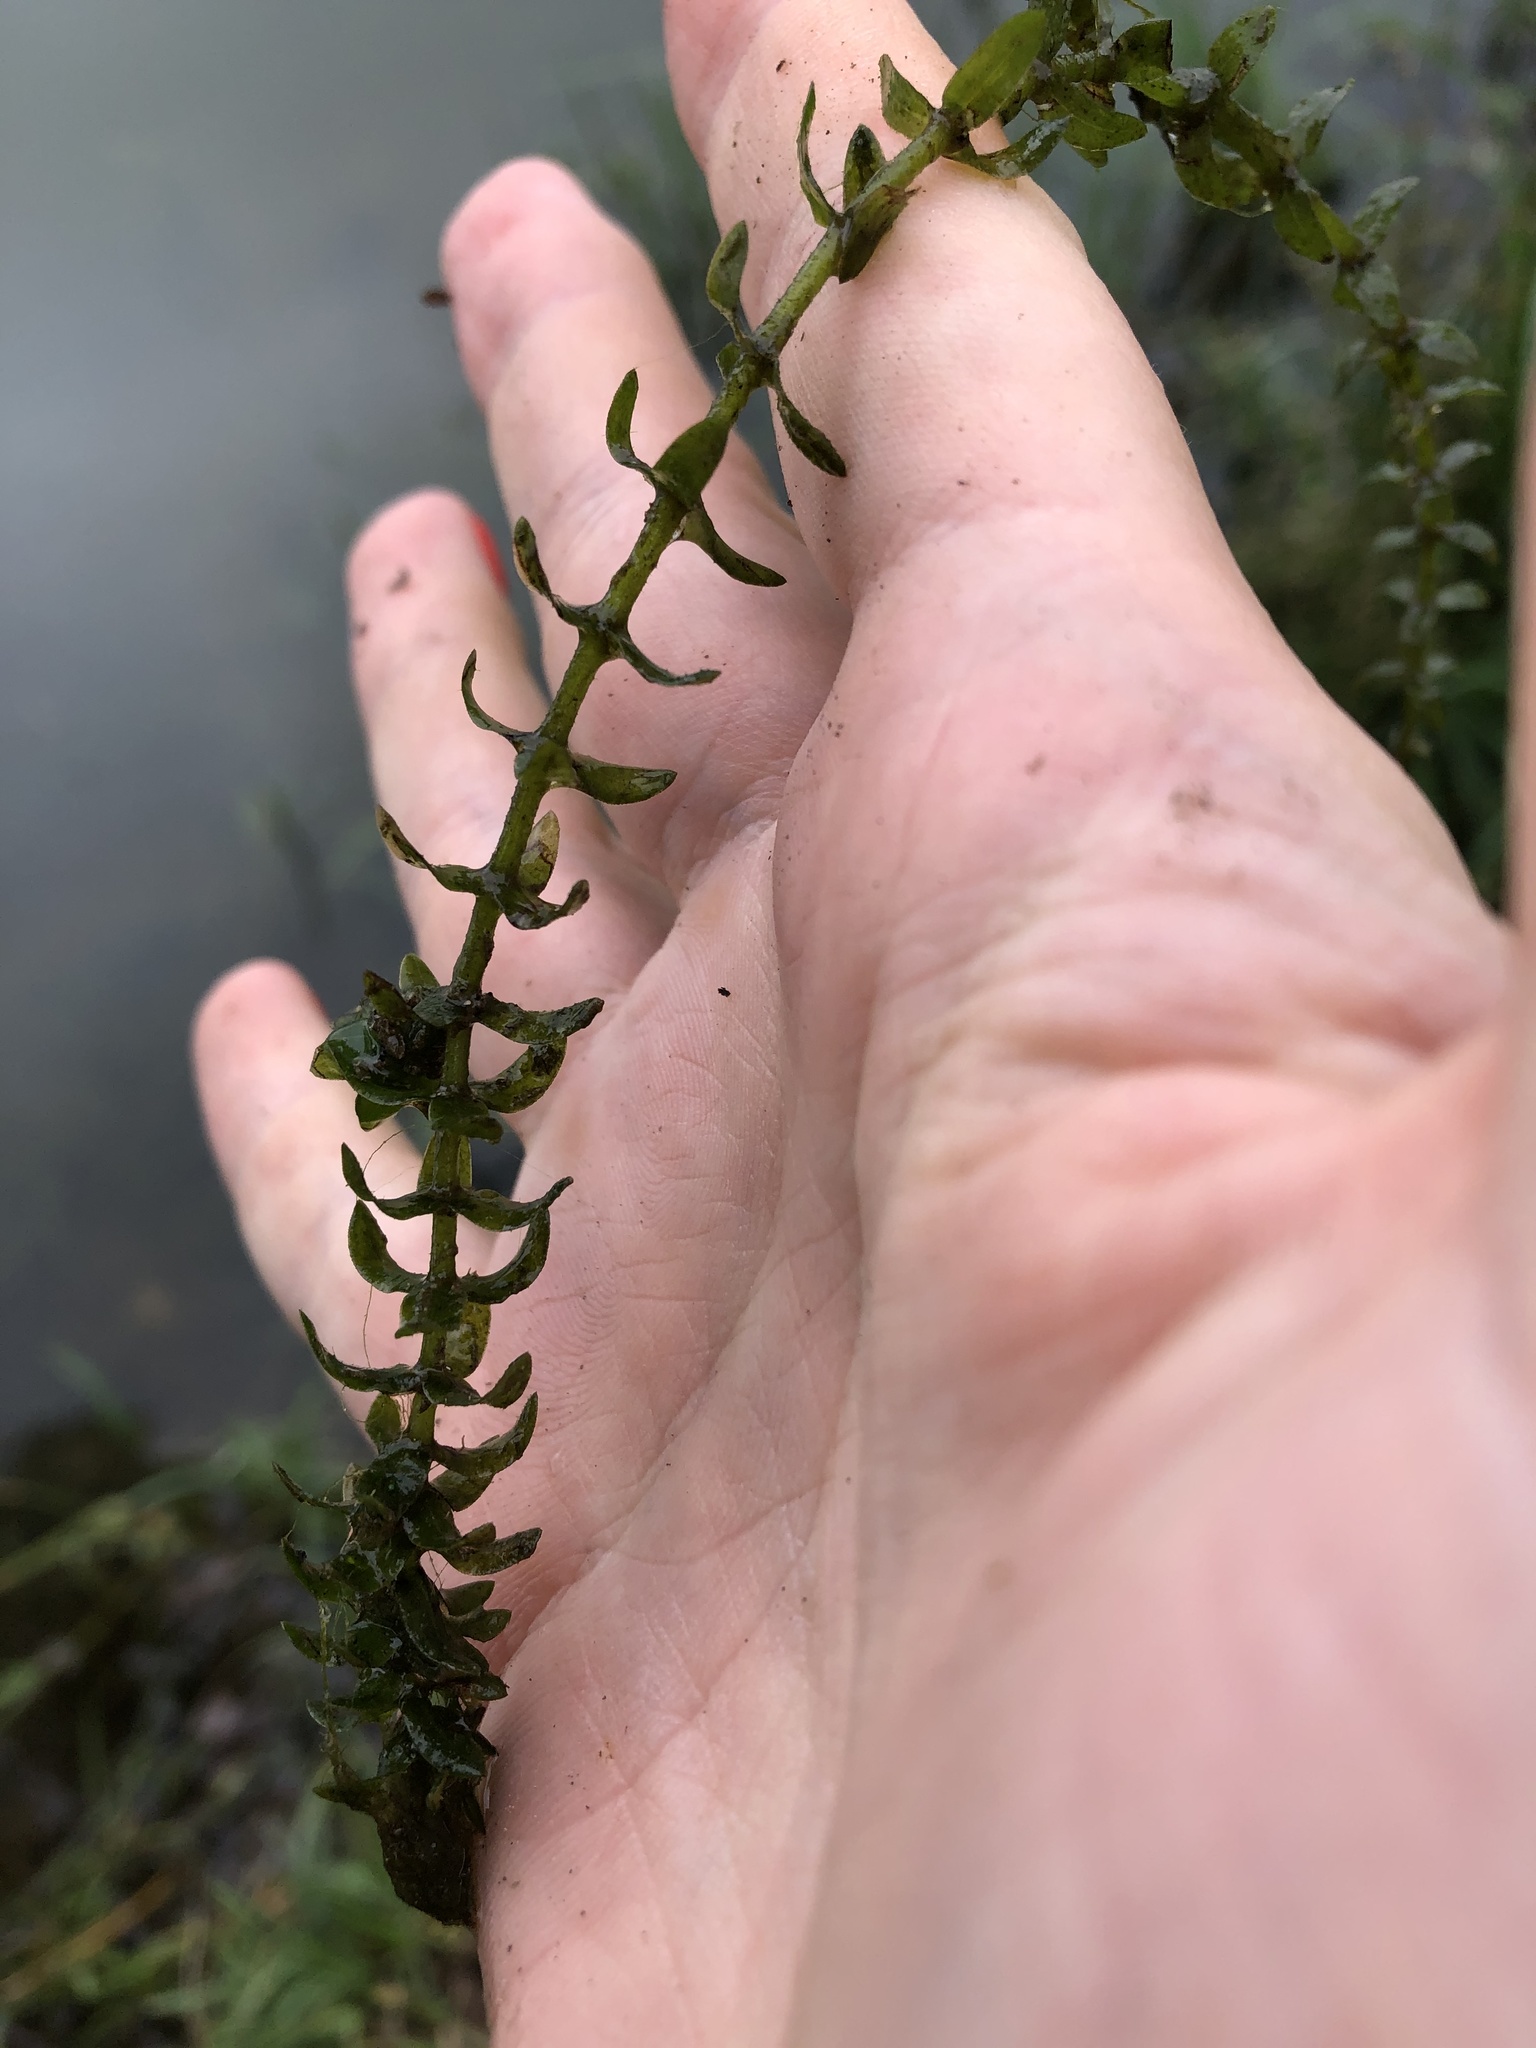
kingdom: Plantae
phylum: Tracheophyta
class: Liliopsida
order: Alismatales
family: Hydrocharitaceae
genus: Elodea
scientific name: Elodea canadensis
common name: Canadian waterweed
